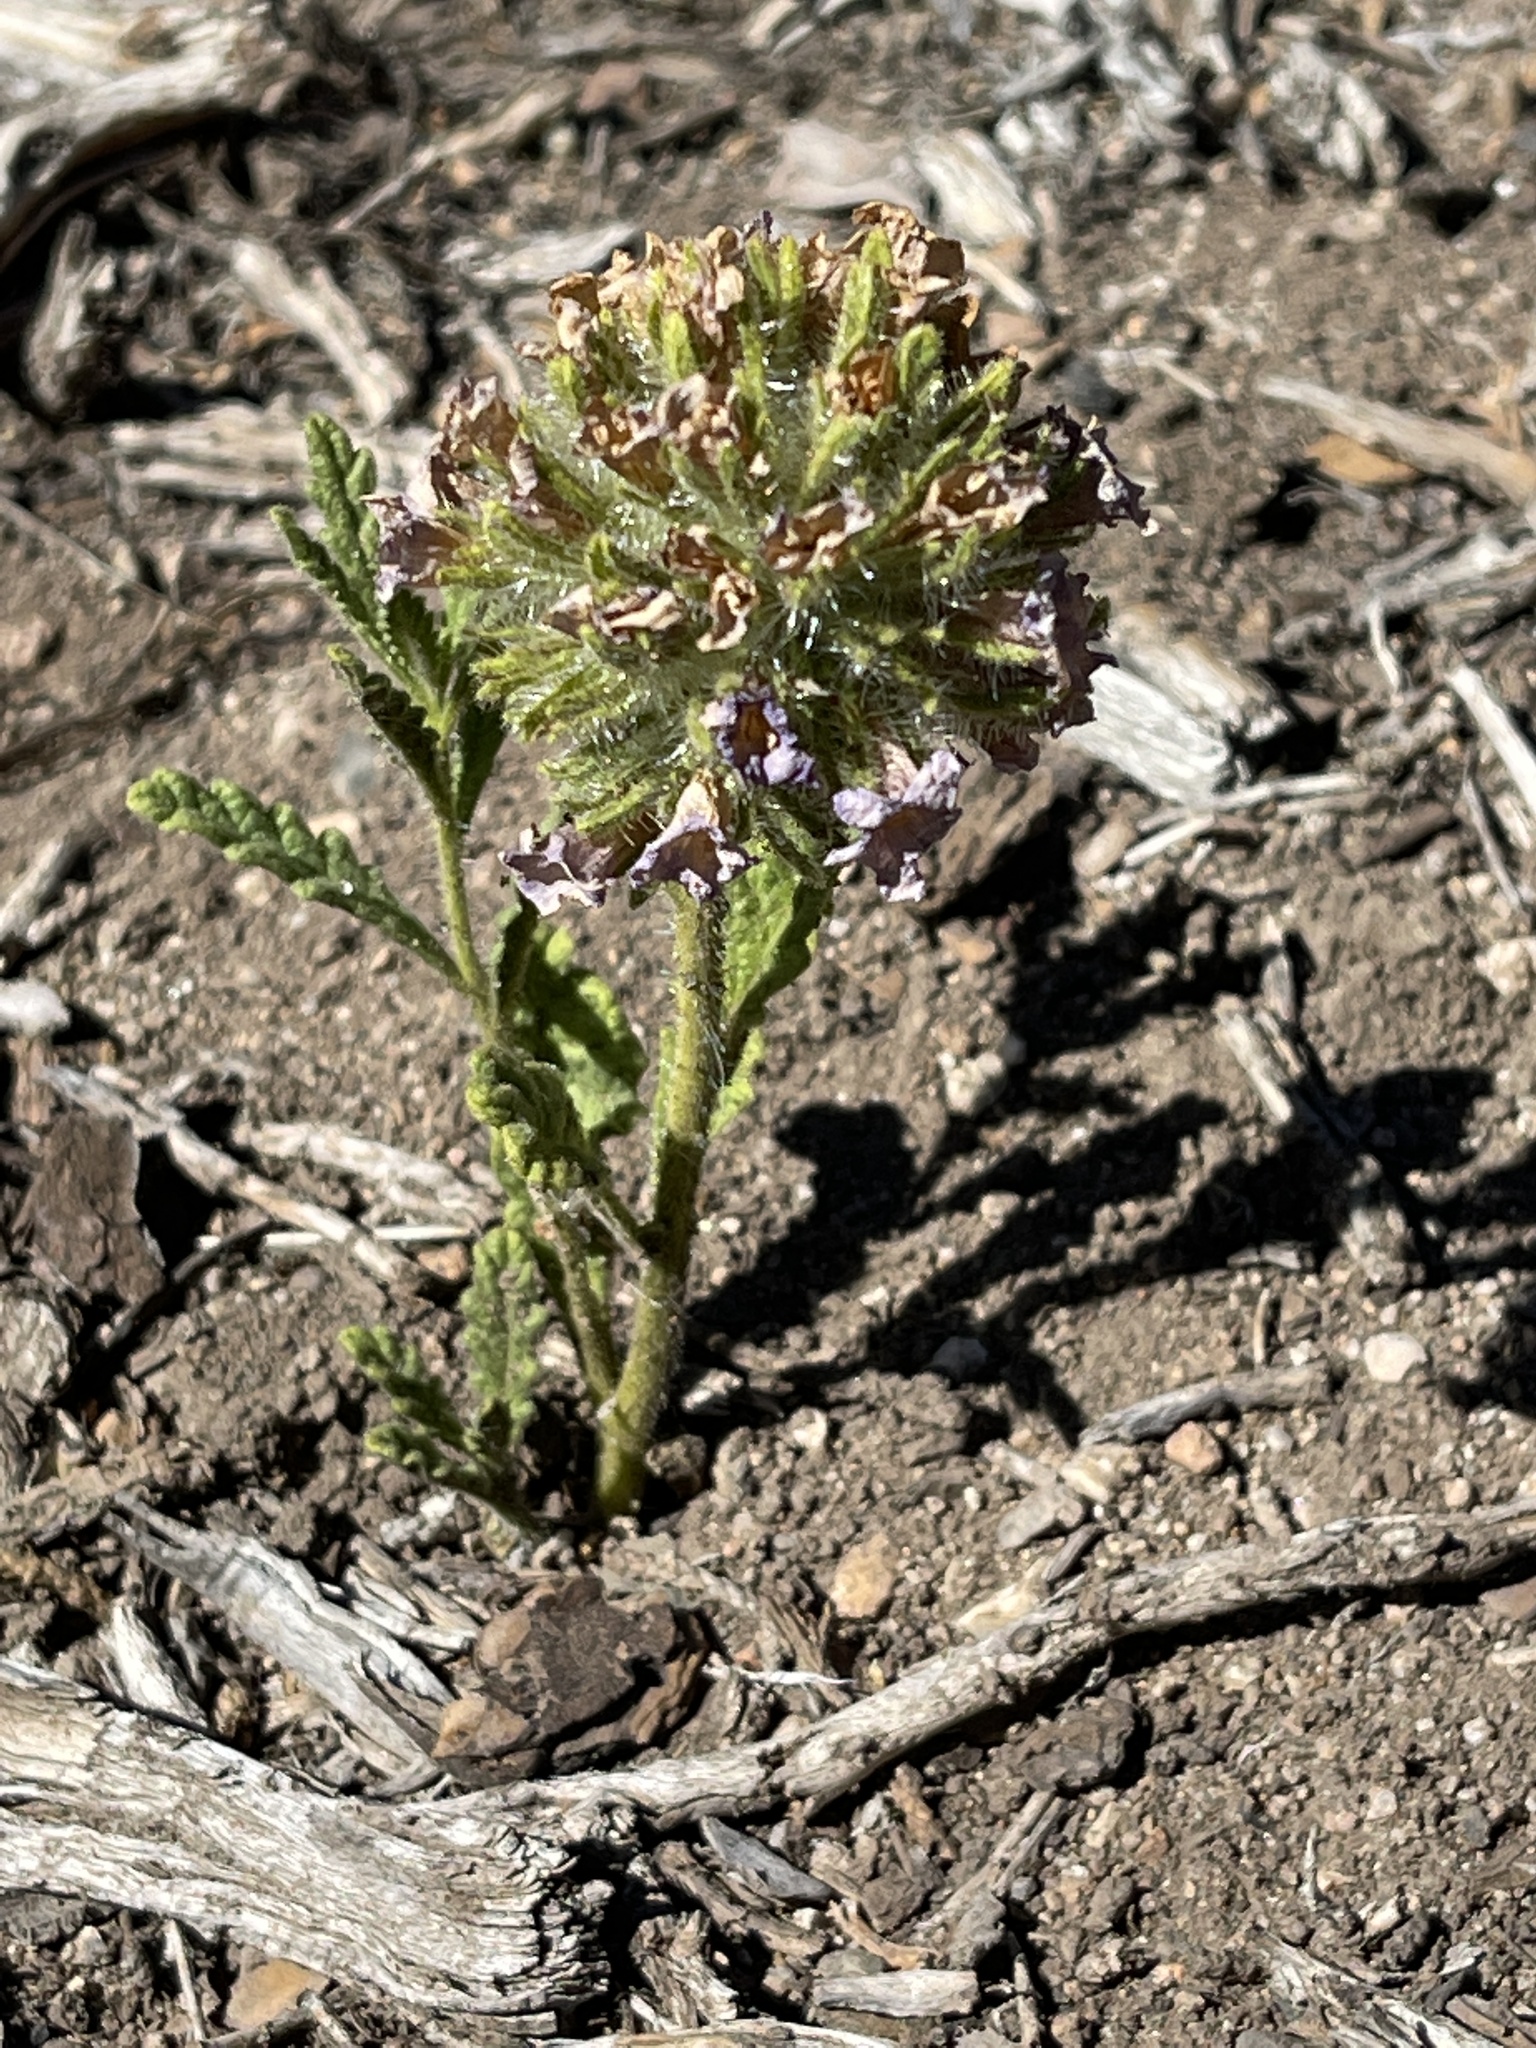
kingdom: Plantae
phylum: Tracheophyta
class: Magnoliopsida
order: Boraginales
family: Namaceae
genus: Nama
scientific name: Nama rothrockii
